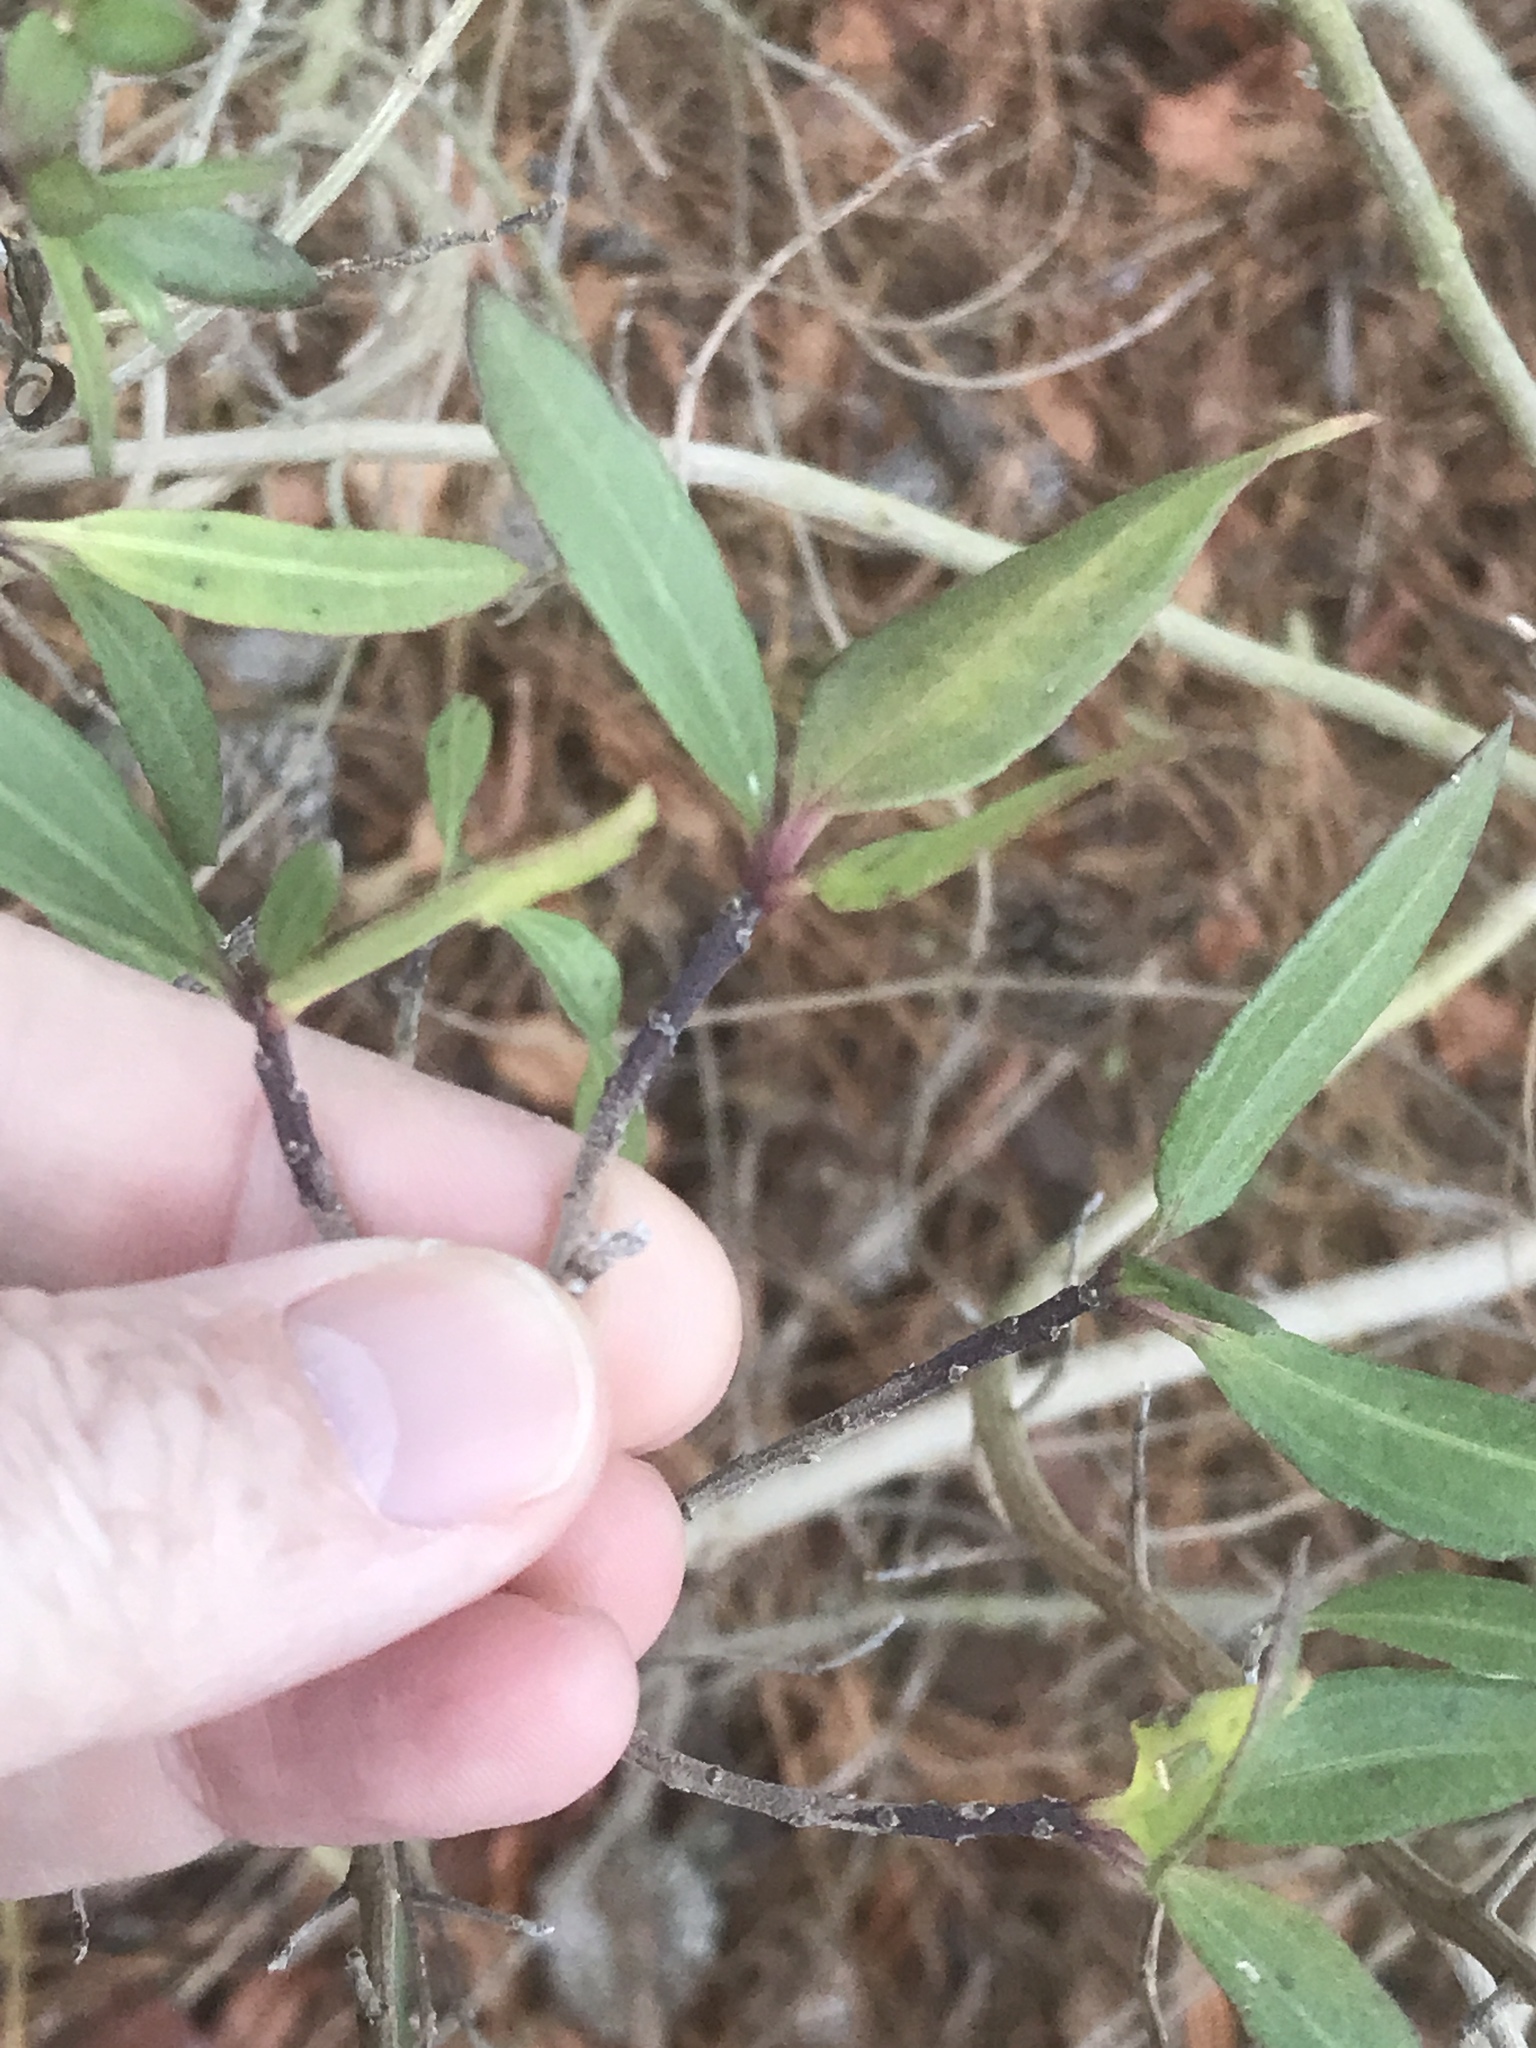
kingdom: Plantae
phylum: Tracheophyta
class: Magnoliopsida
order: Asterales
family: Asteraceae
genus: Iva
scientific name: Iva frutescens
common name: Big-leaved marsh-elder
